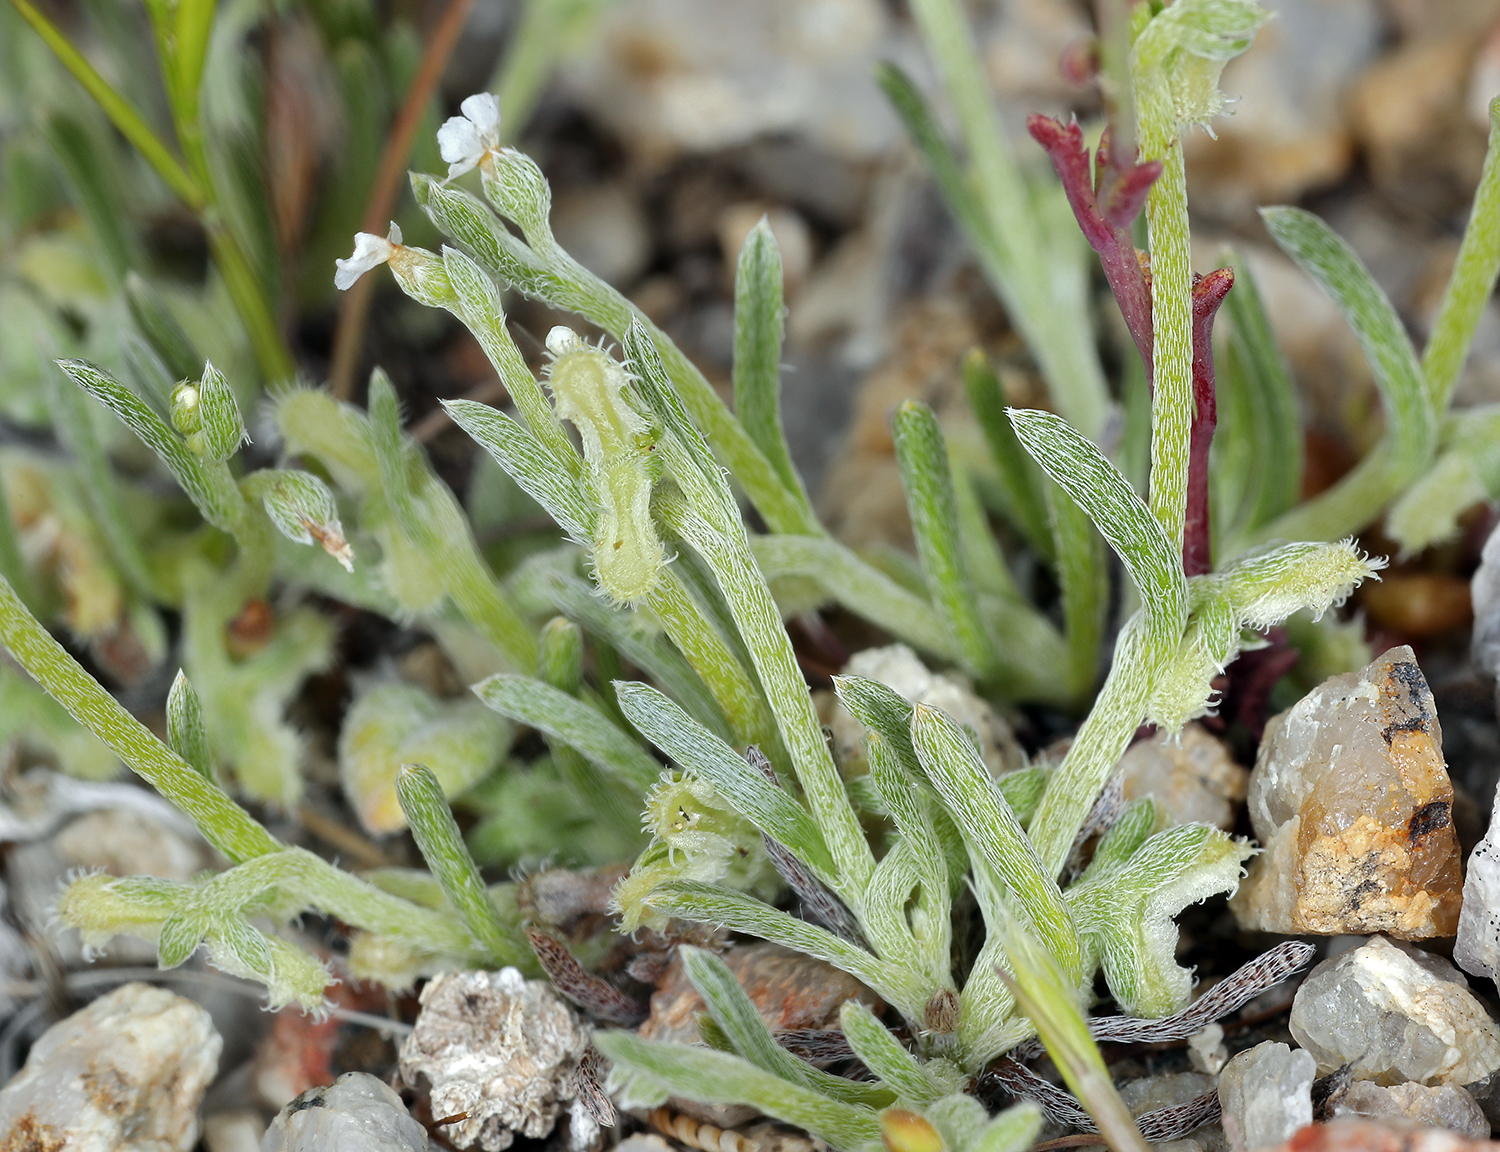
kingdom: Plantae
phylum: Tracheophyta
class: Magnoliopsida
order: Boraginales
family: Boraginaceae
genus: Pectocarya
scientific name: Pectocarya penicillata
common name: Short-leaved combseed
